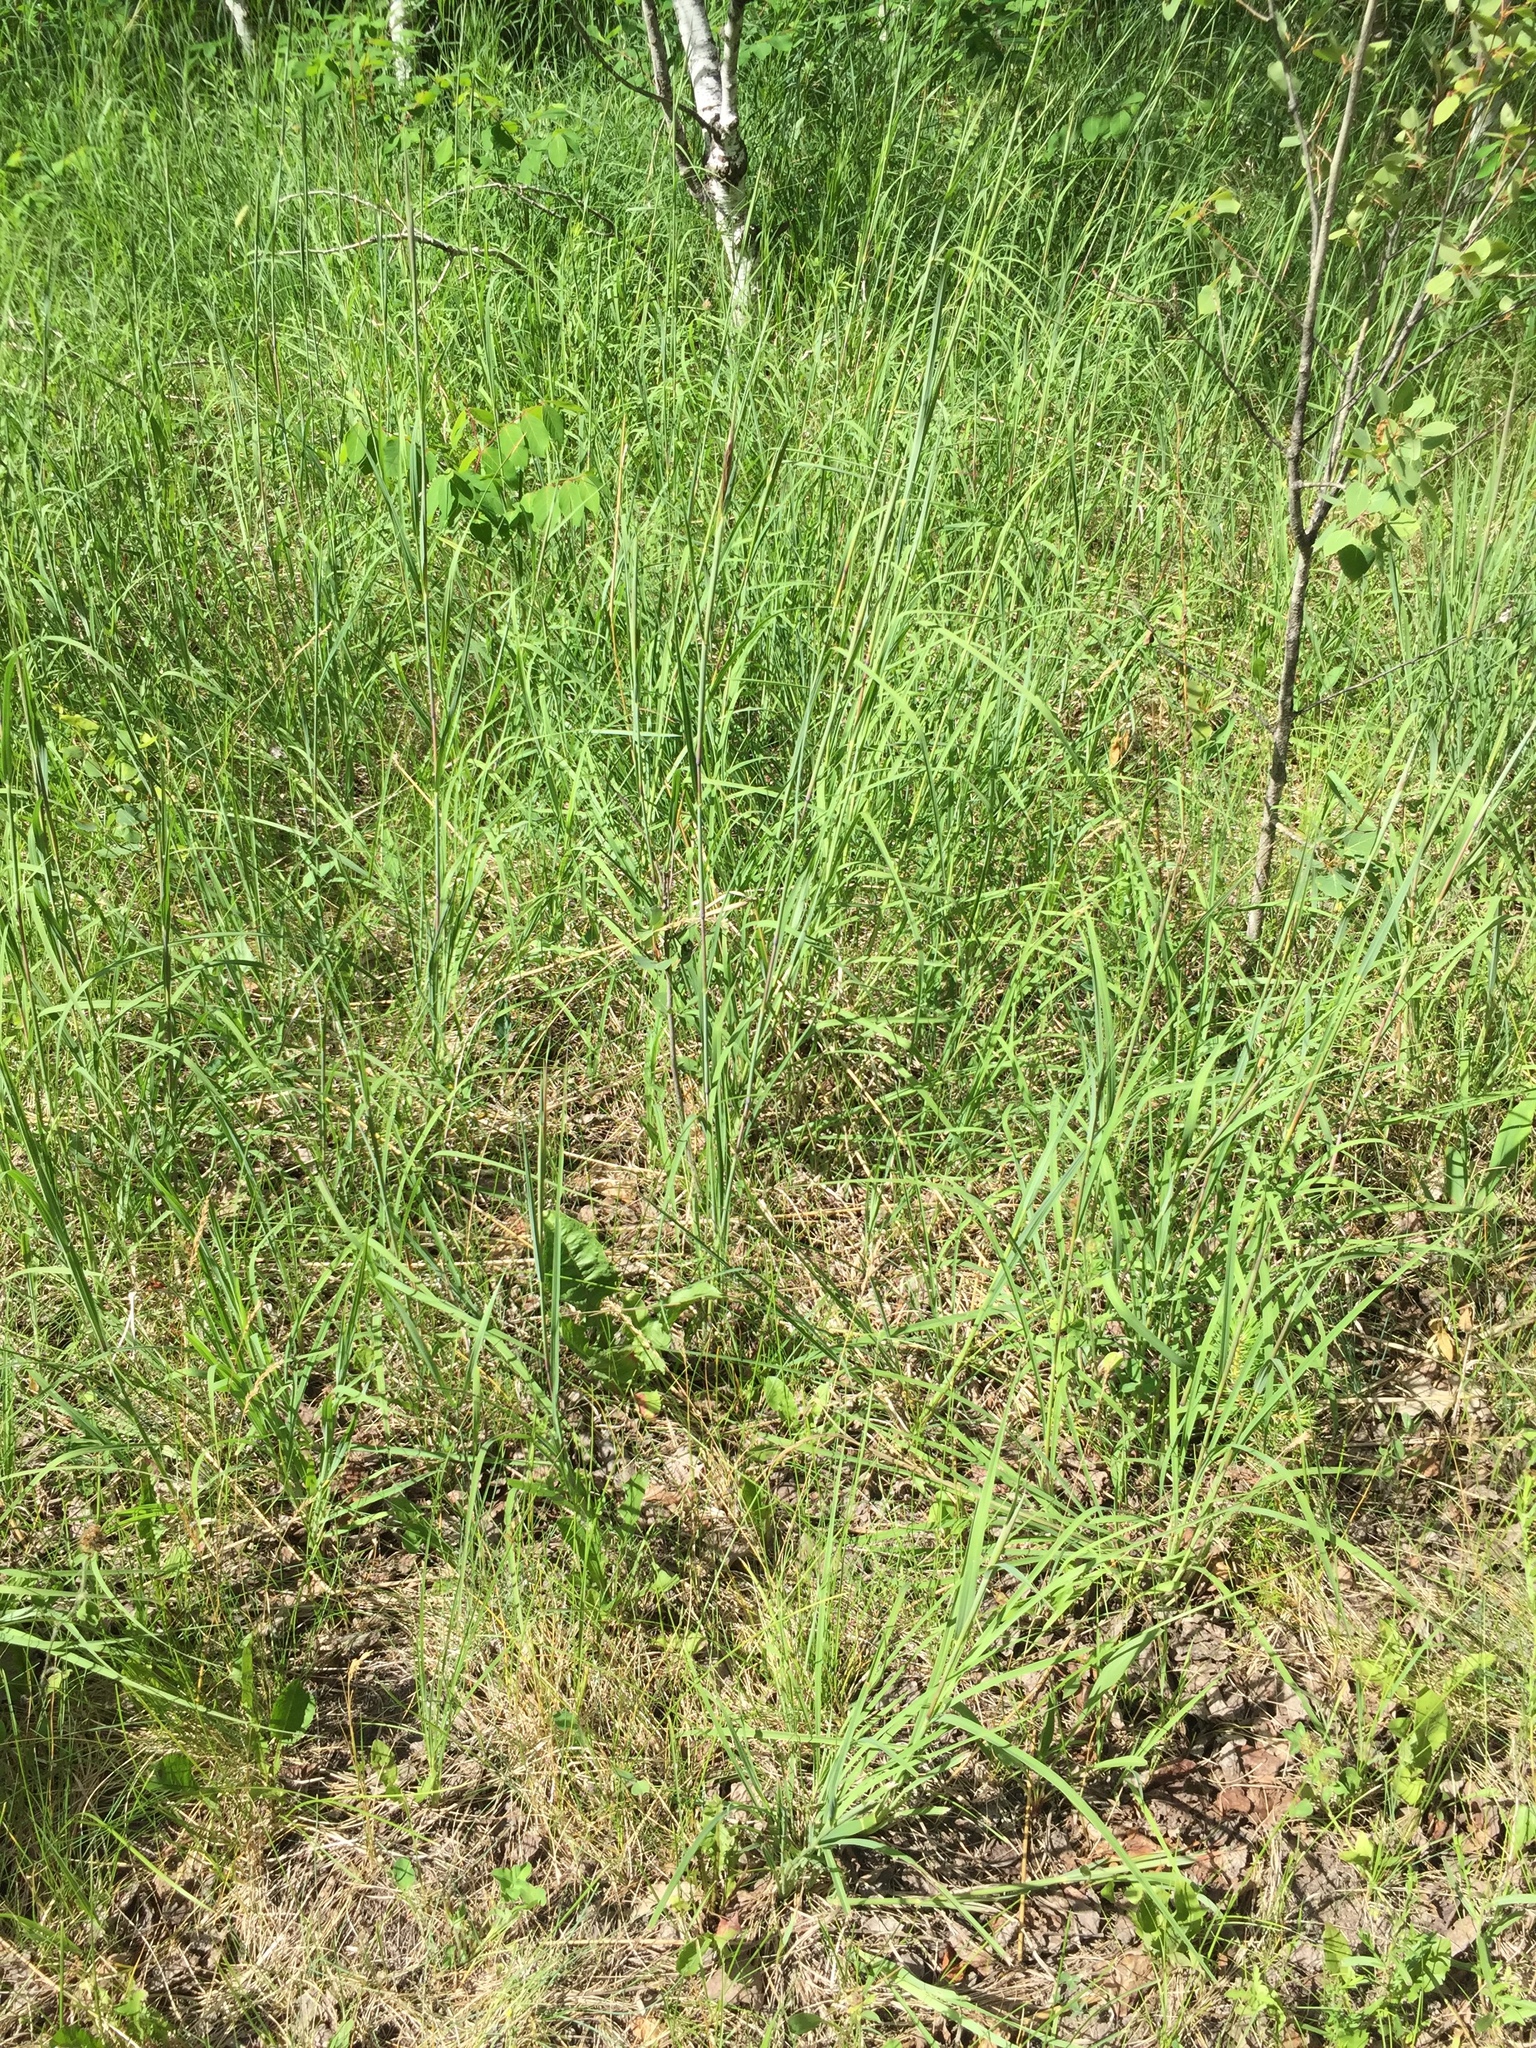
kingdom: Plantae
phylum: Tracheophyta
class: Liliopsida
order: Poales
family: Poaceae
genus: Andropogon
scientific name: Andropogon gerardi
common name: Big bluestem
